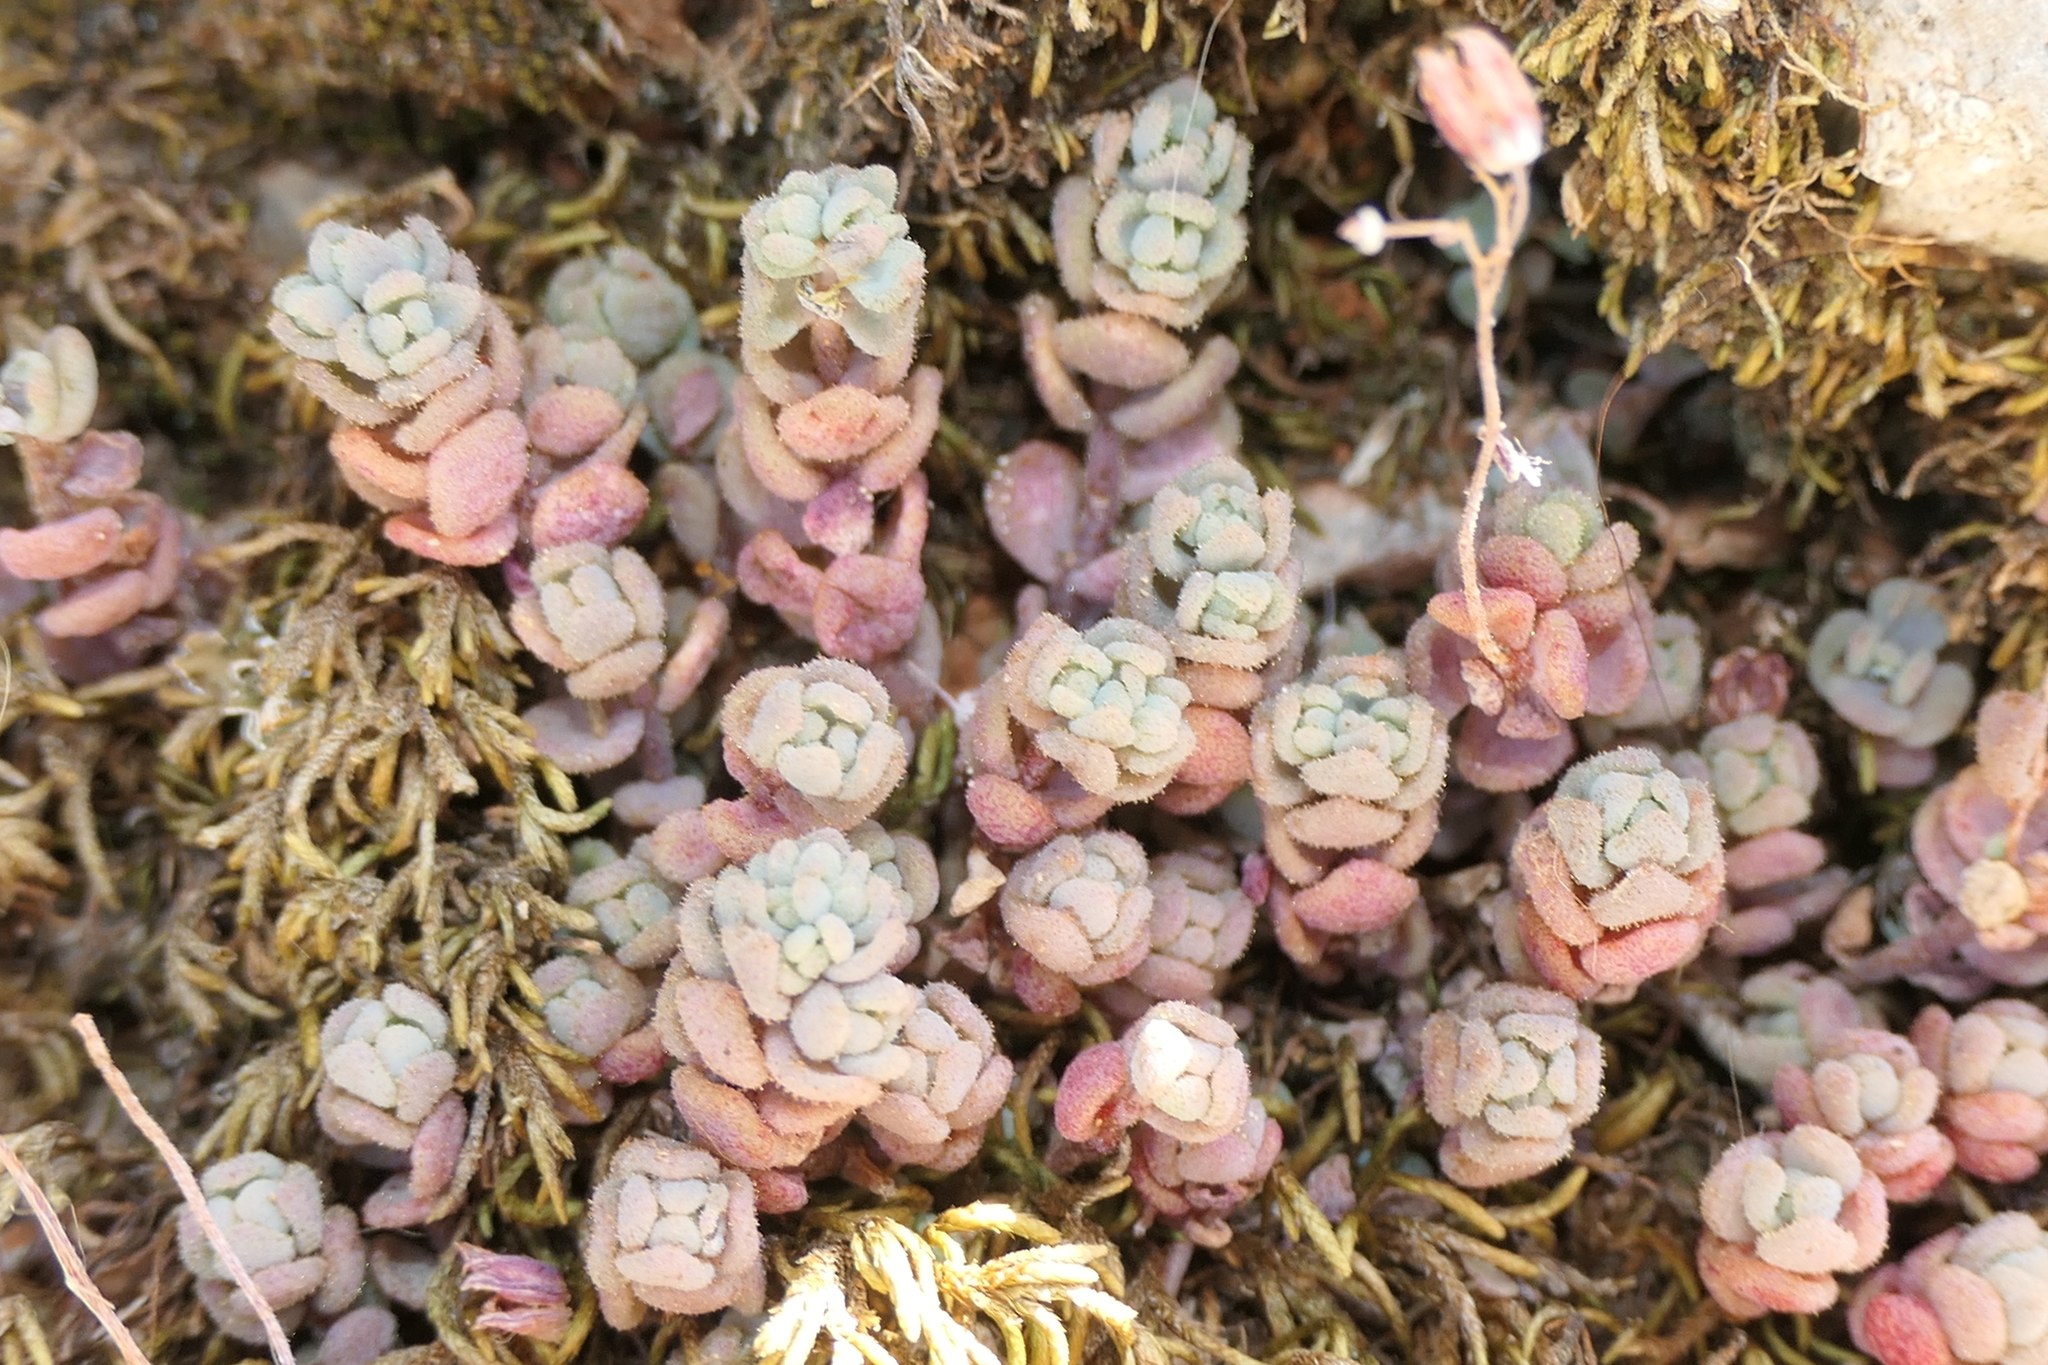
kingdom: Plantae
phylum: Tracheophyta
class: Magnoliopsida
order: Saxifragales
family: Crassulaceae
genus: Sedum
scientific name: Sedum dasyphyllum
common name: Thick-leaf stonecrop
